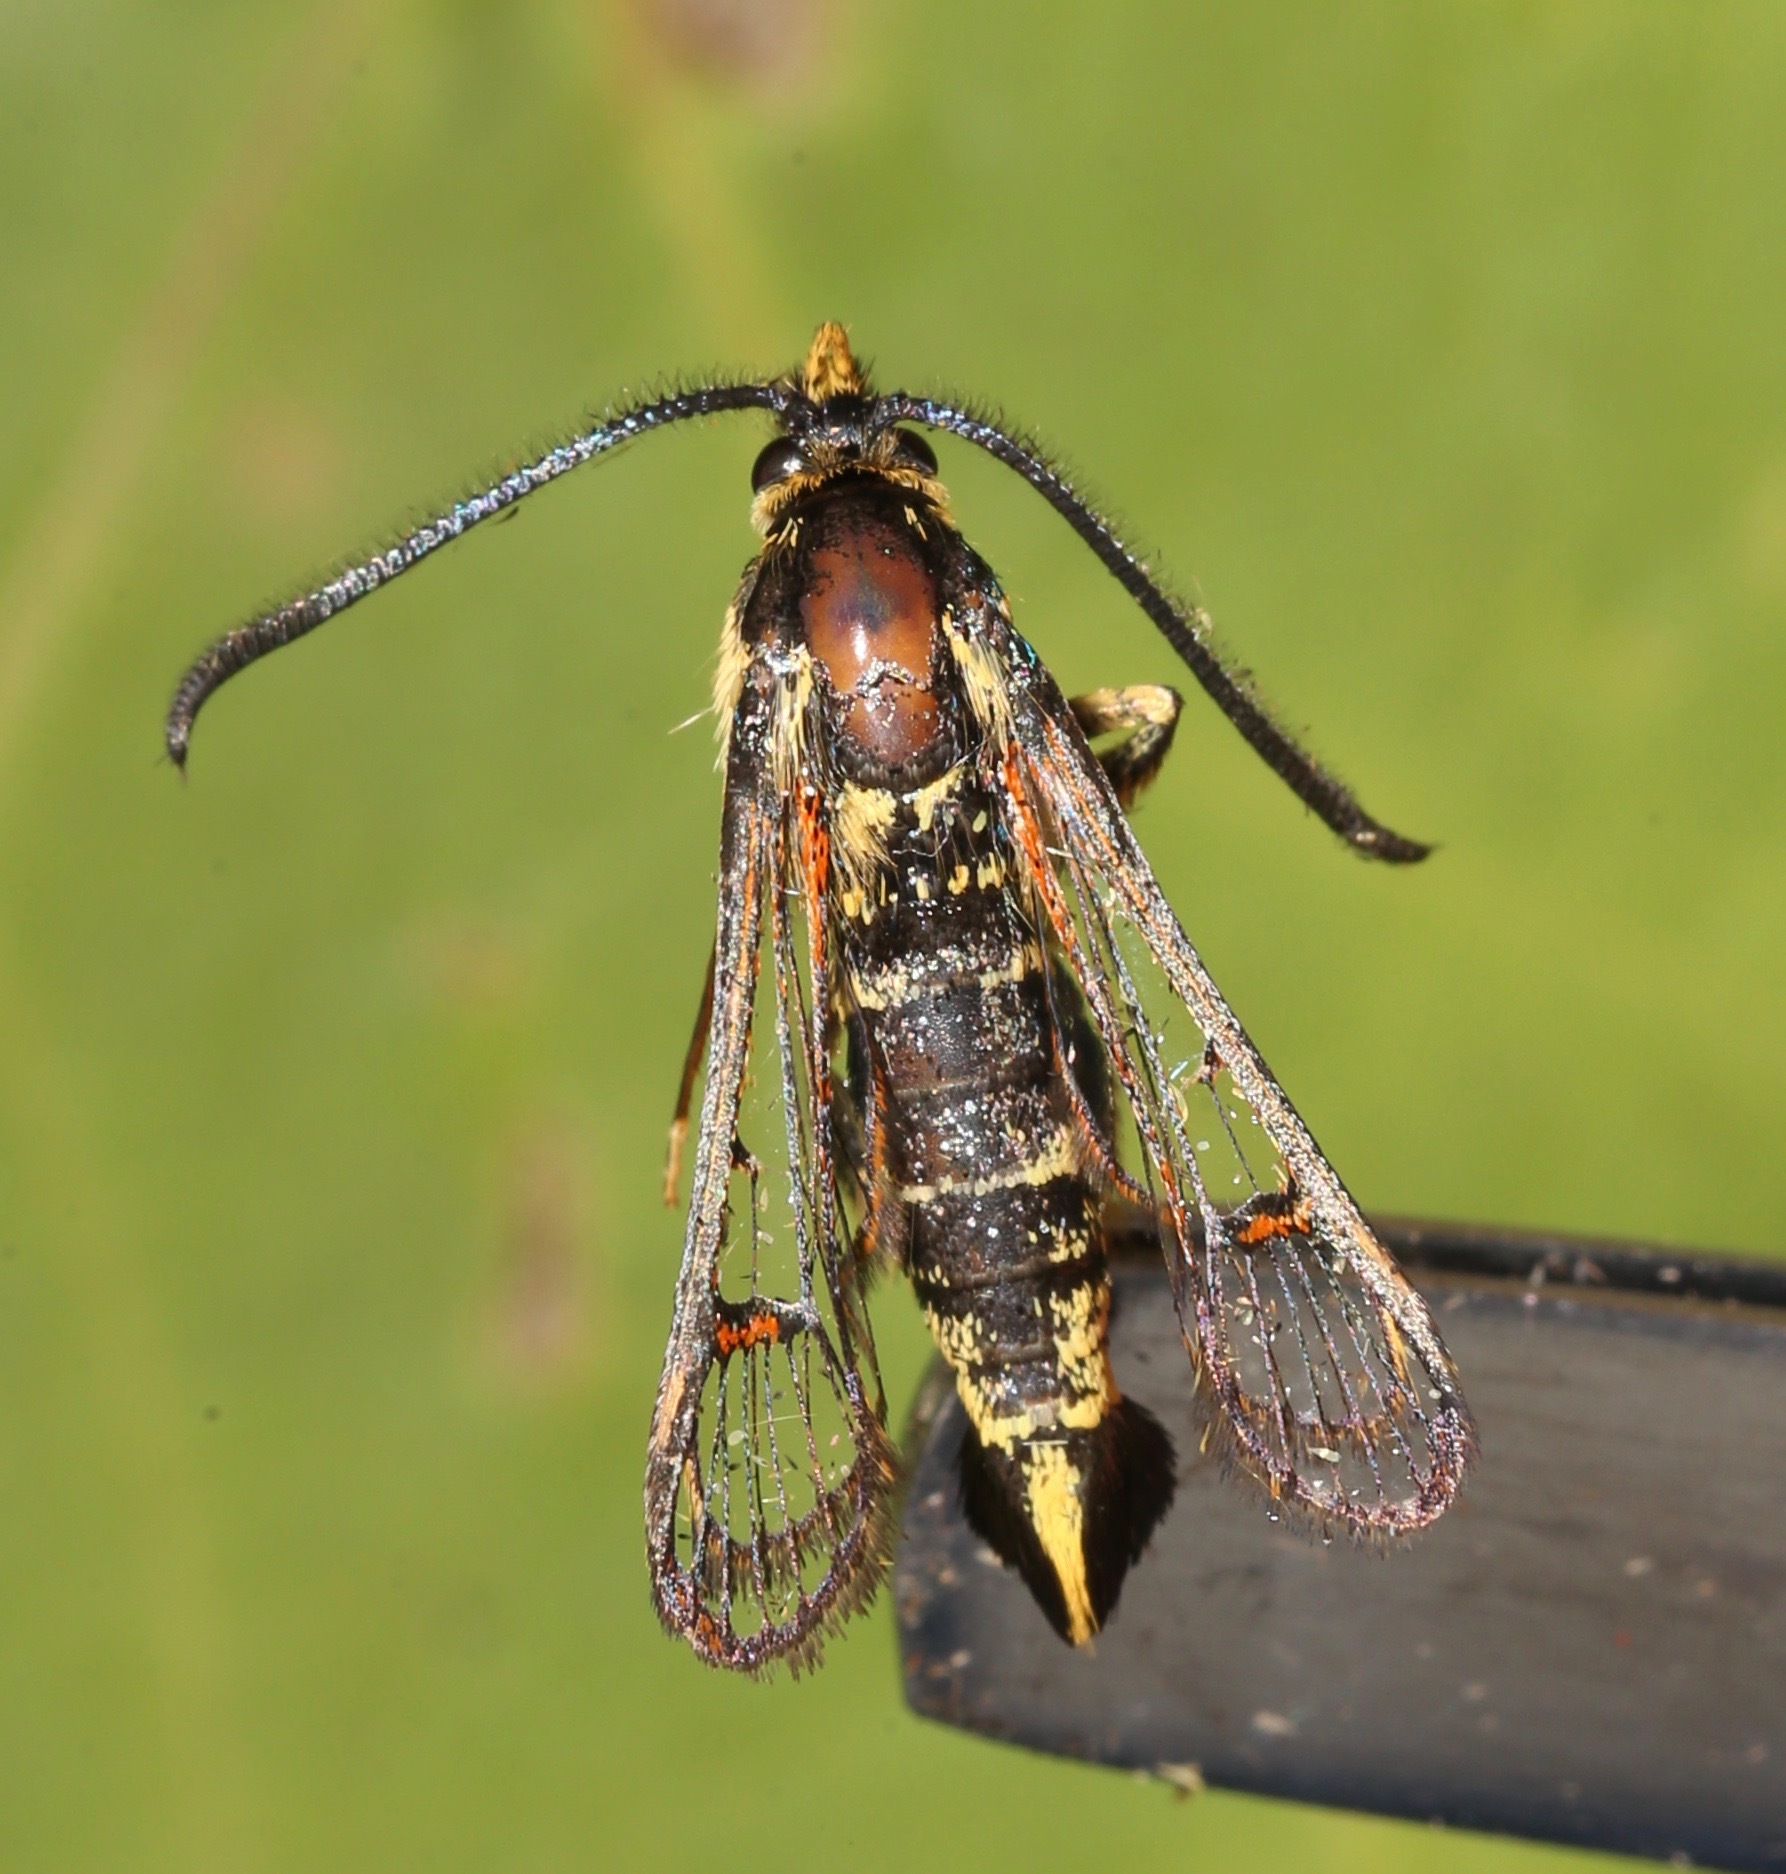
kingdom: Animalia
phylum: Arthropoda
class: Insecta
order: Lepidoptera
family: Sesiidae
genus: Carmenta
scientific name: Carmenta giliae
